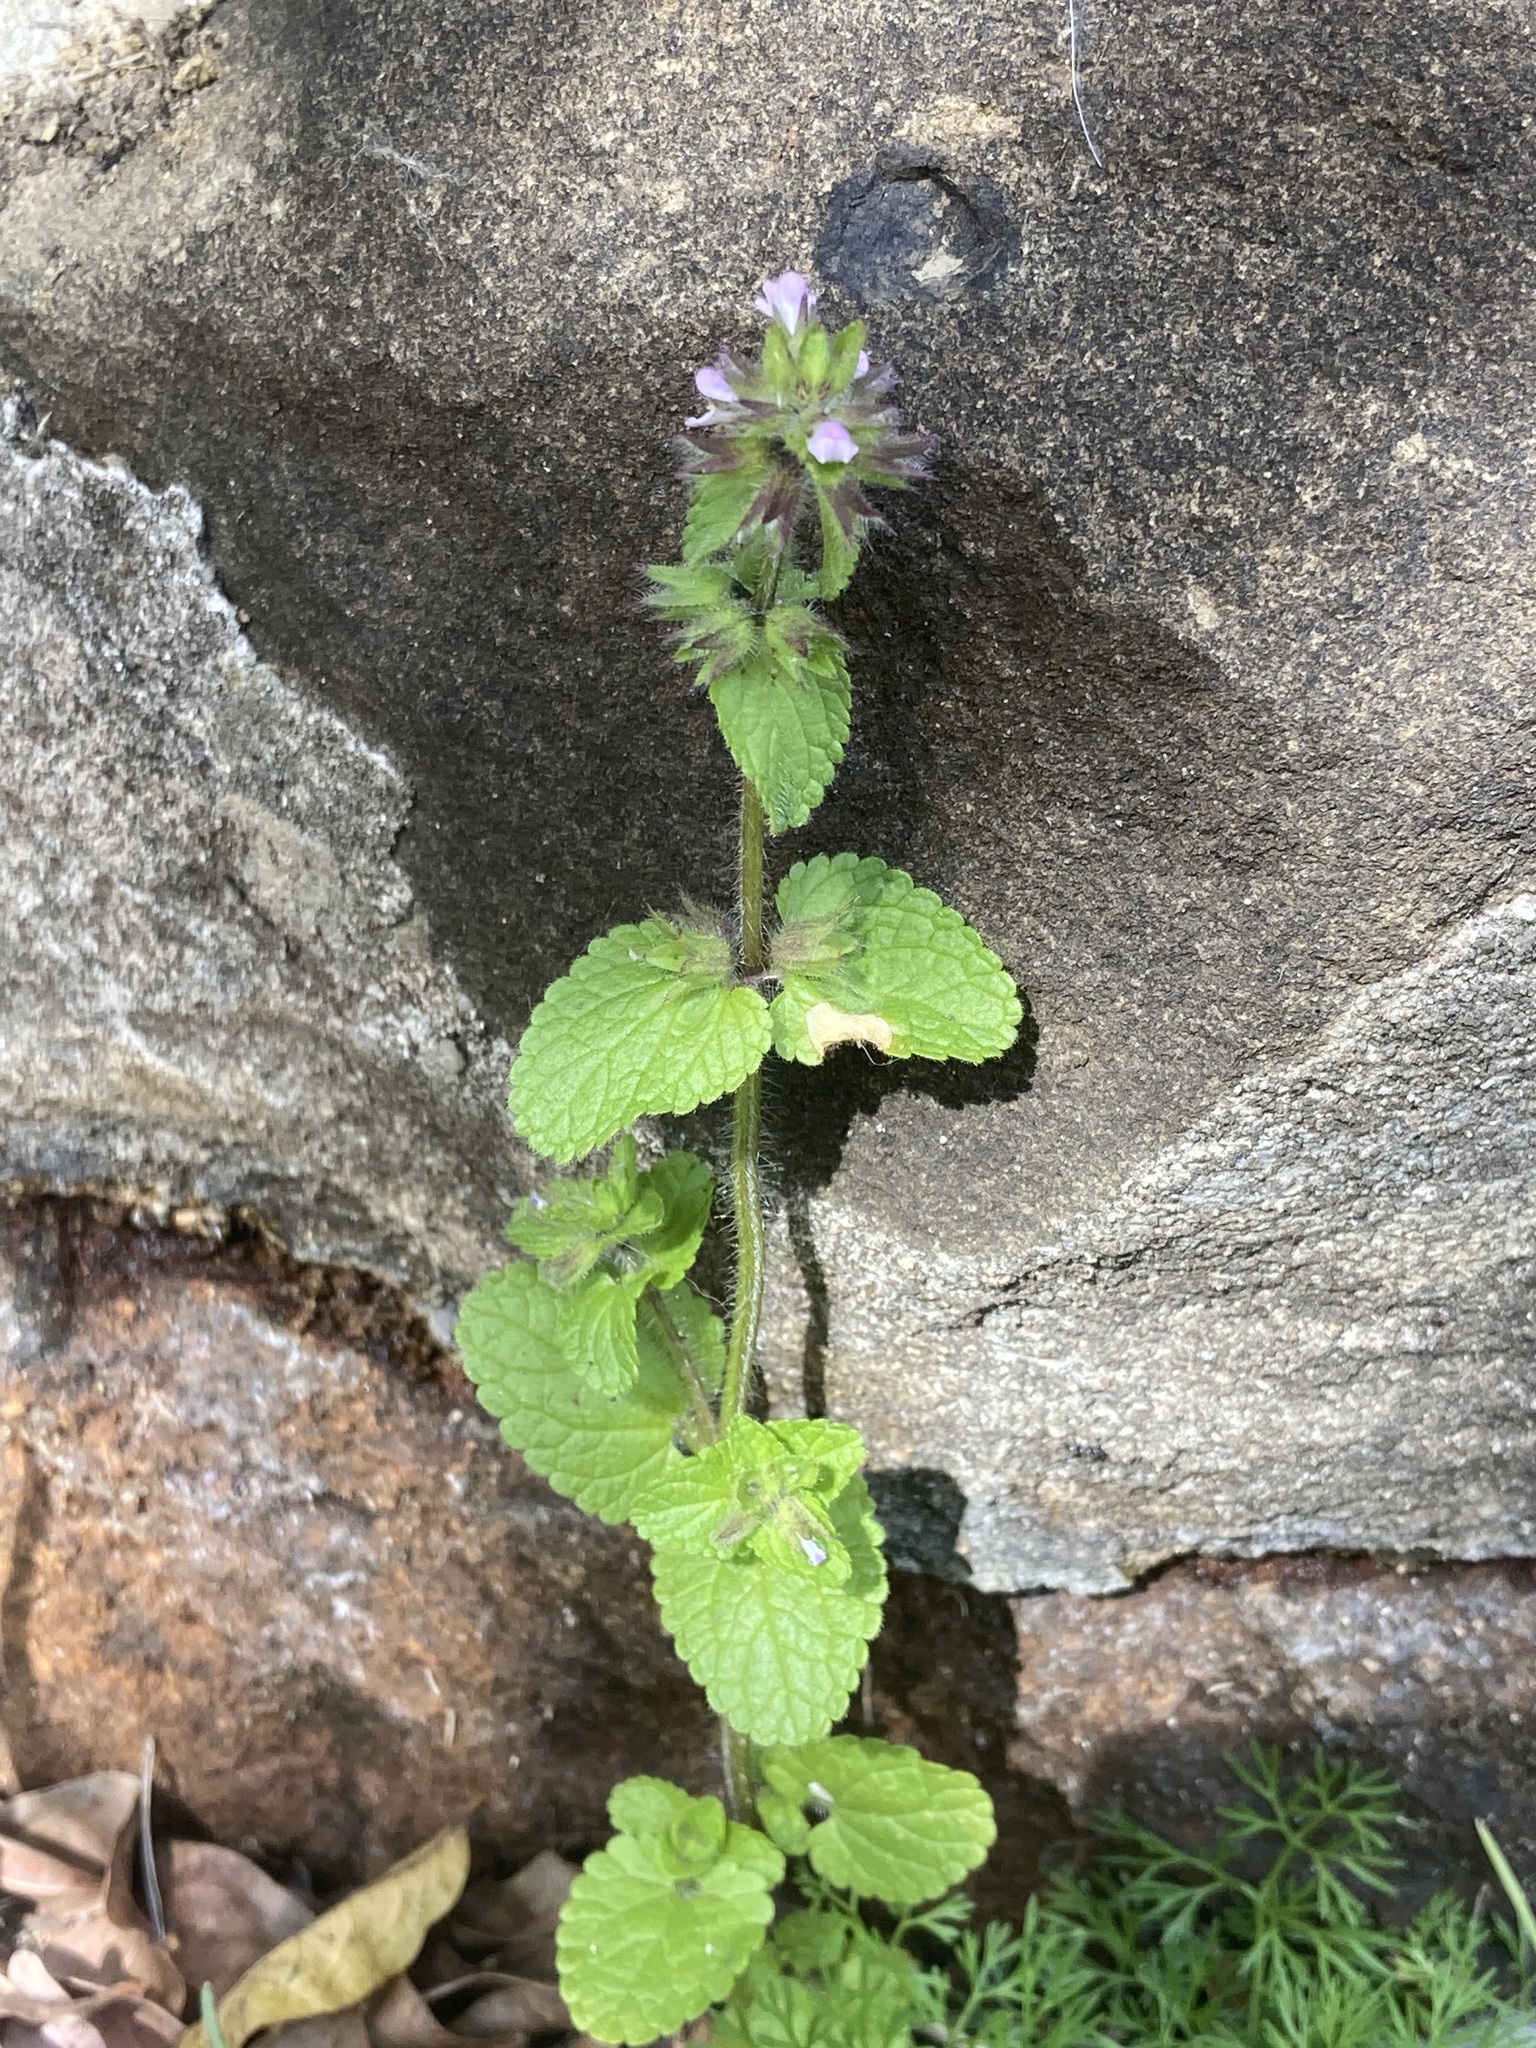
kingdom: Plantae
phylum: Tracheophyta
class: Magnoliopsida
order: Lamiales
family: Lamiaceae
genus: Stachys
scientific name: Stachys arvensis
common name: Field woundwort
